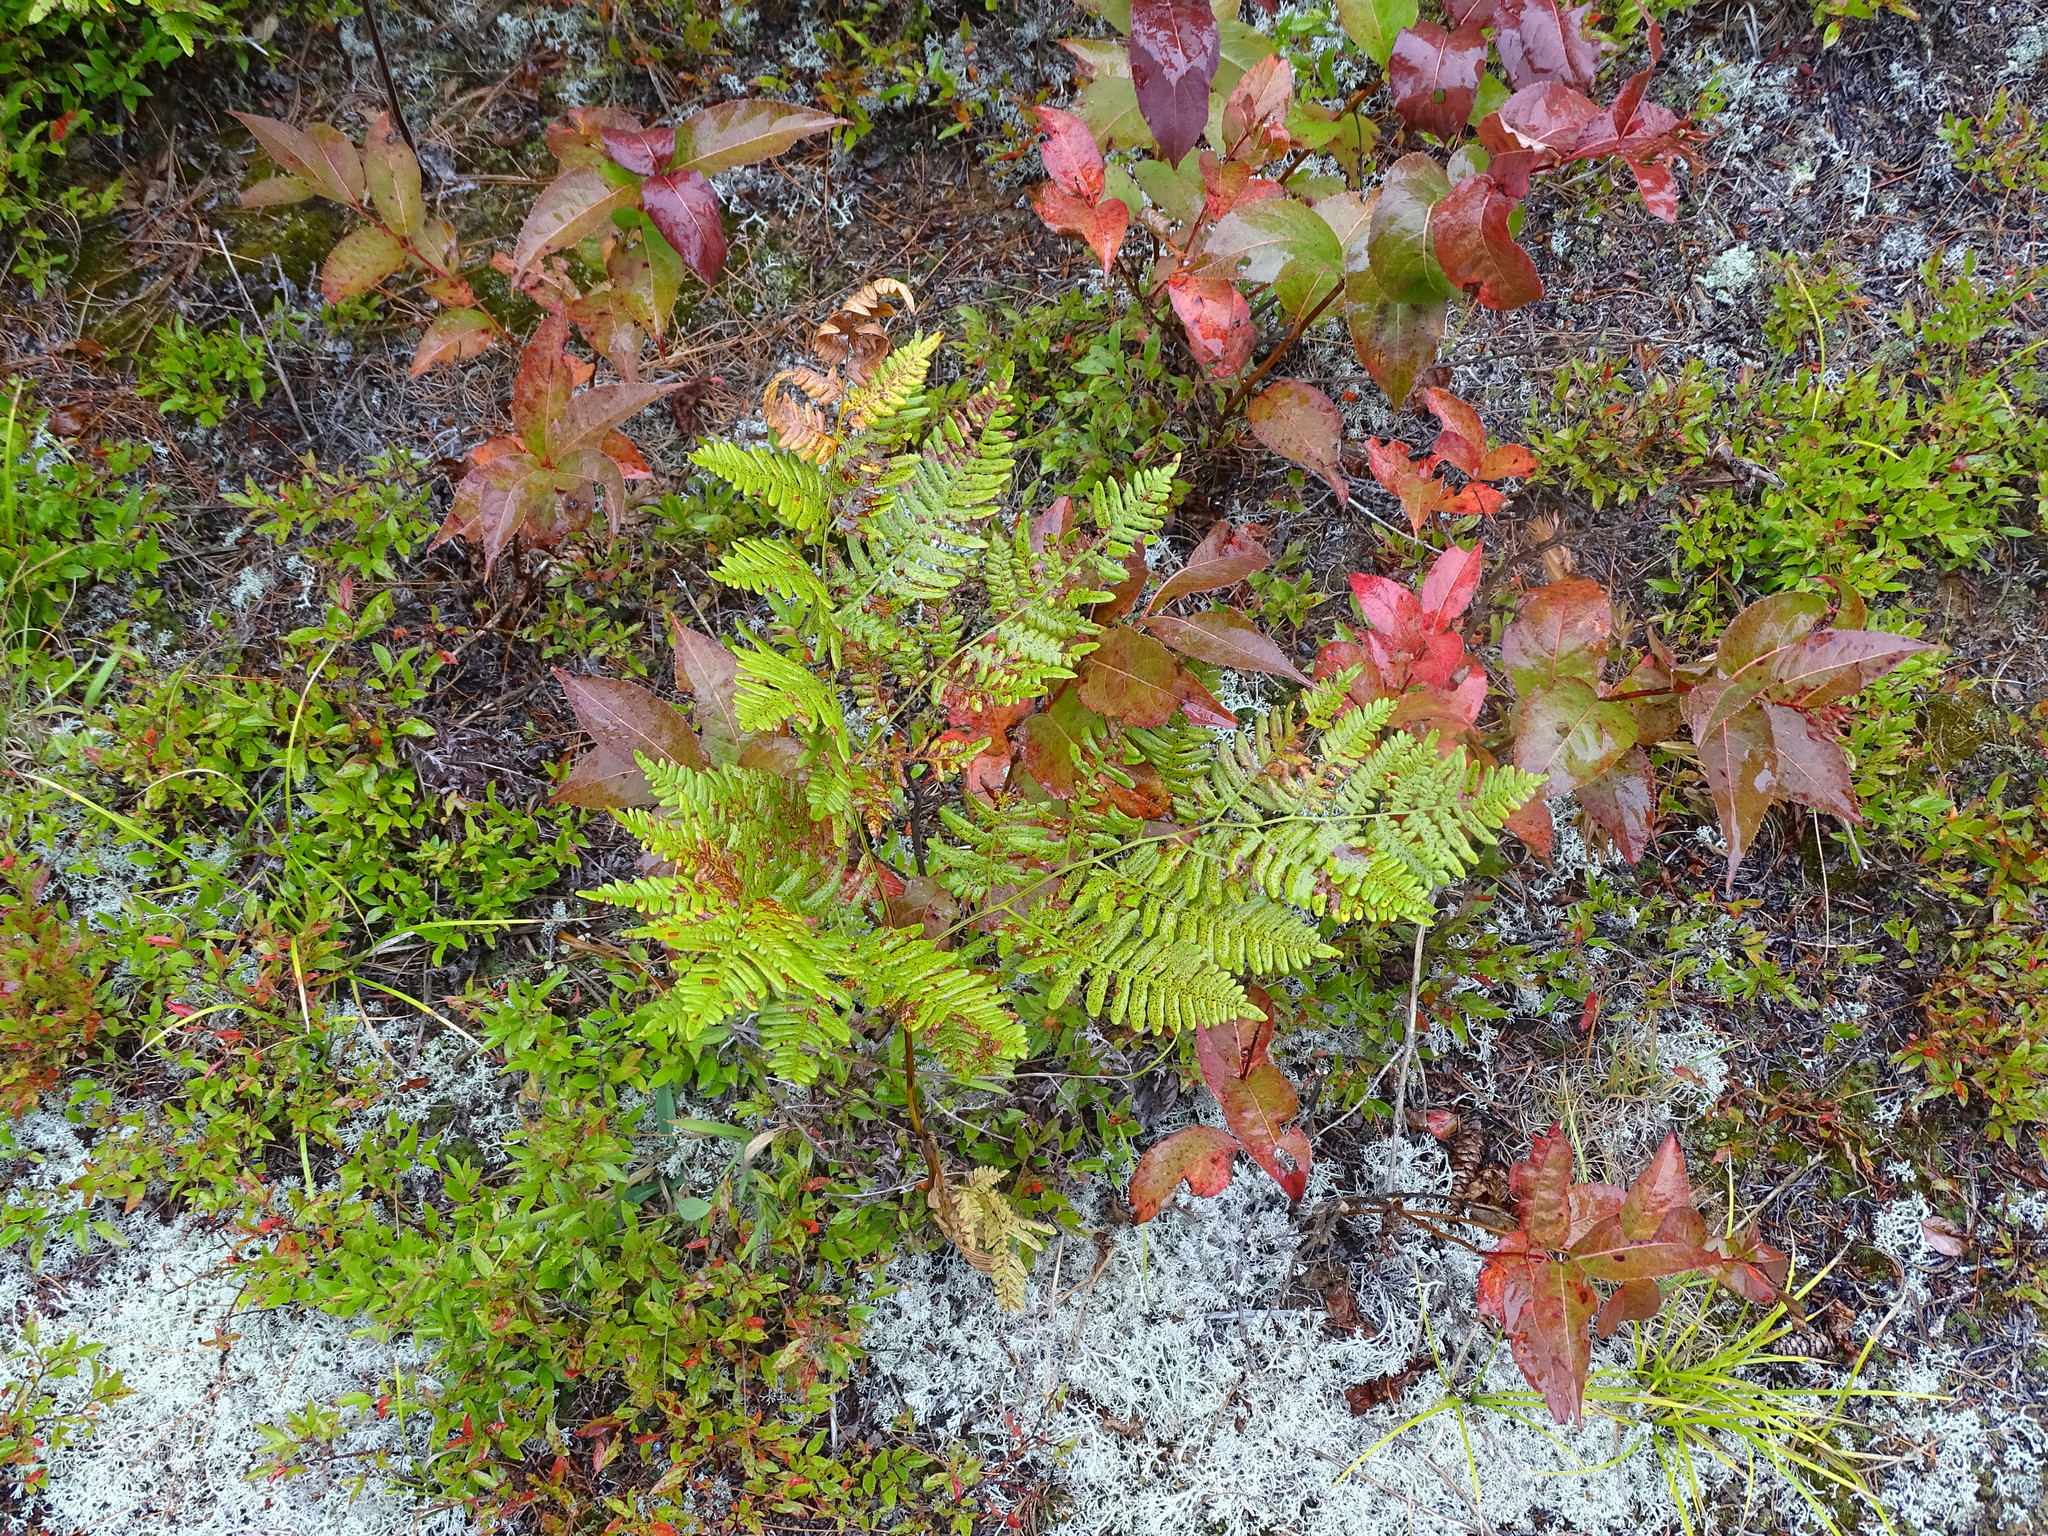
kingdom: Plantae
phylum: Tracheophyta
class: Polypodiopsida
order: Polypodiales
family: Dennstaedtiaceae
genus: Pteridium
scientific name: Pteridium aquilinum
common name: Bracken
